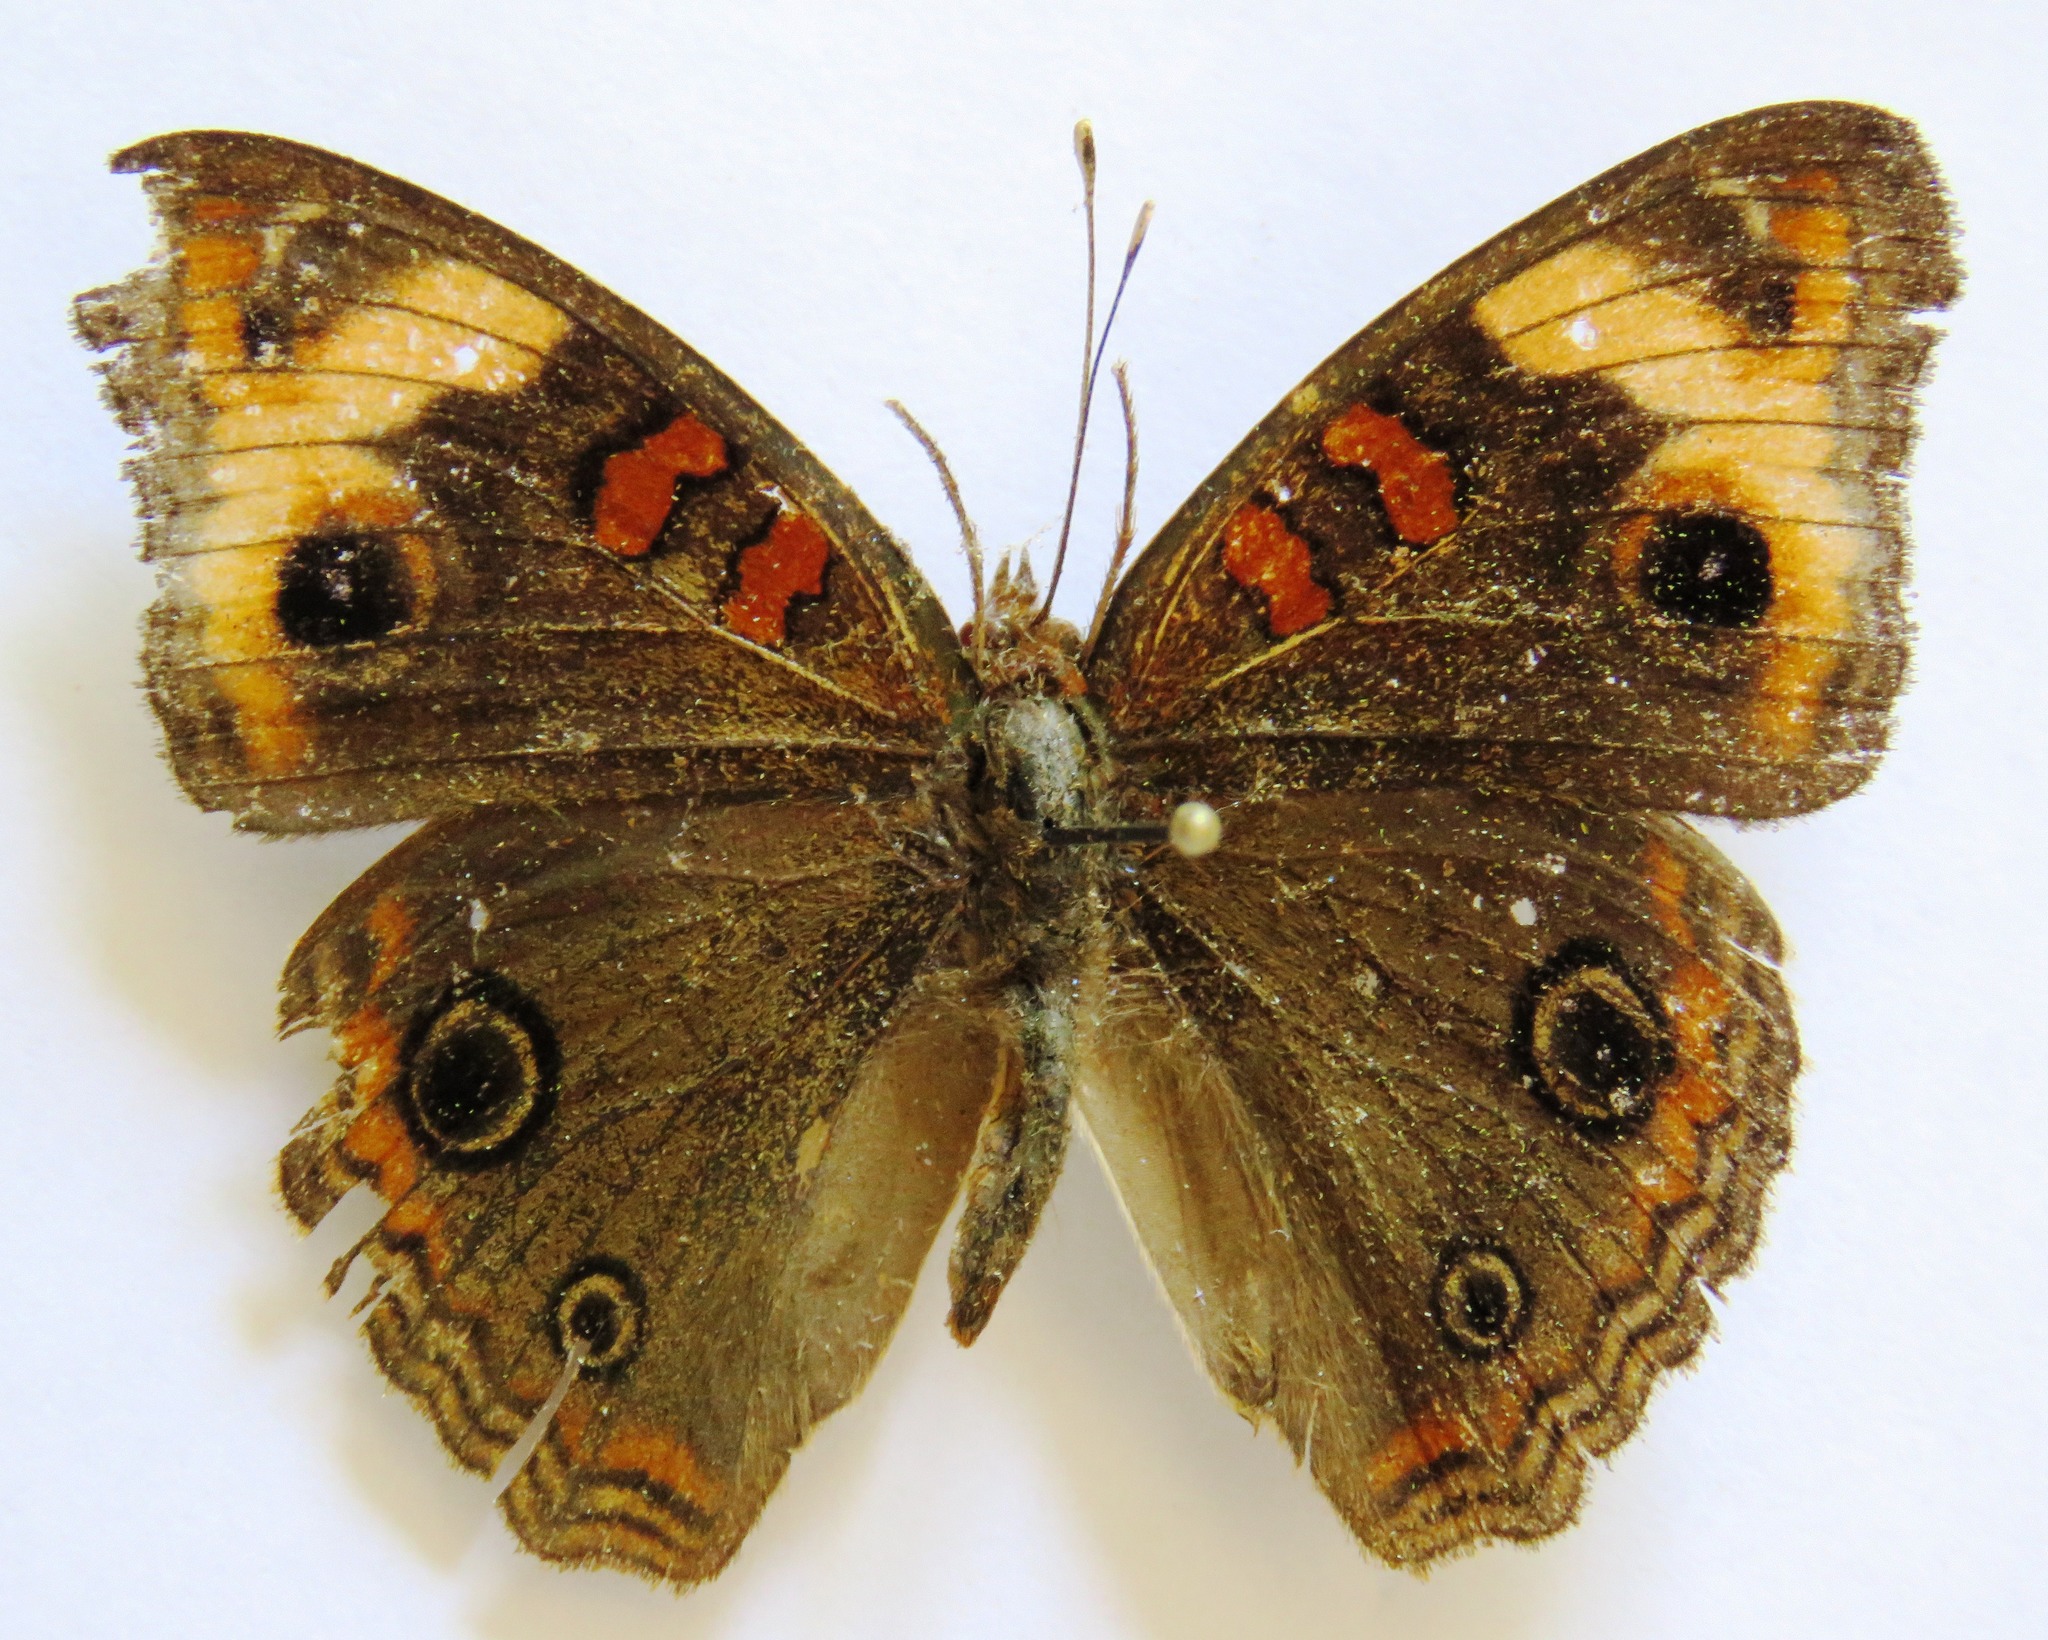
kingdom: Animalia
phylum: Arthropoda
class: Insecta
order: Lepidoptera
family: Nymphalidae
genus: Junonia
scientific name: Junonia lavinia
